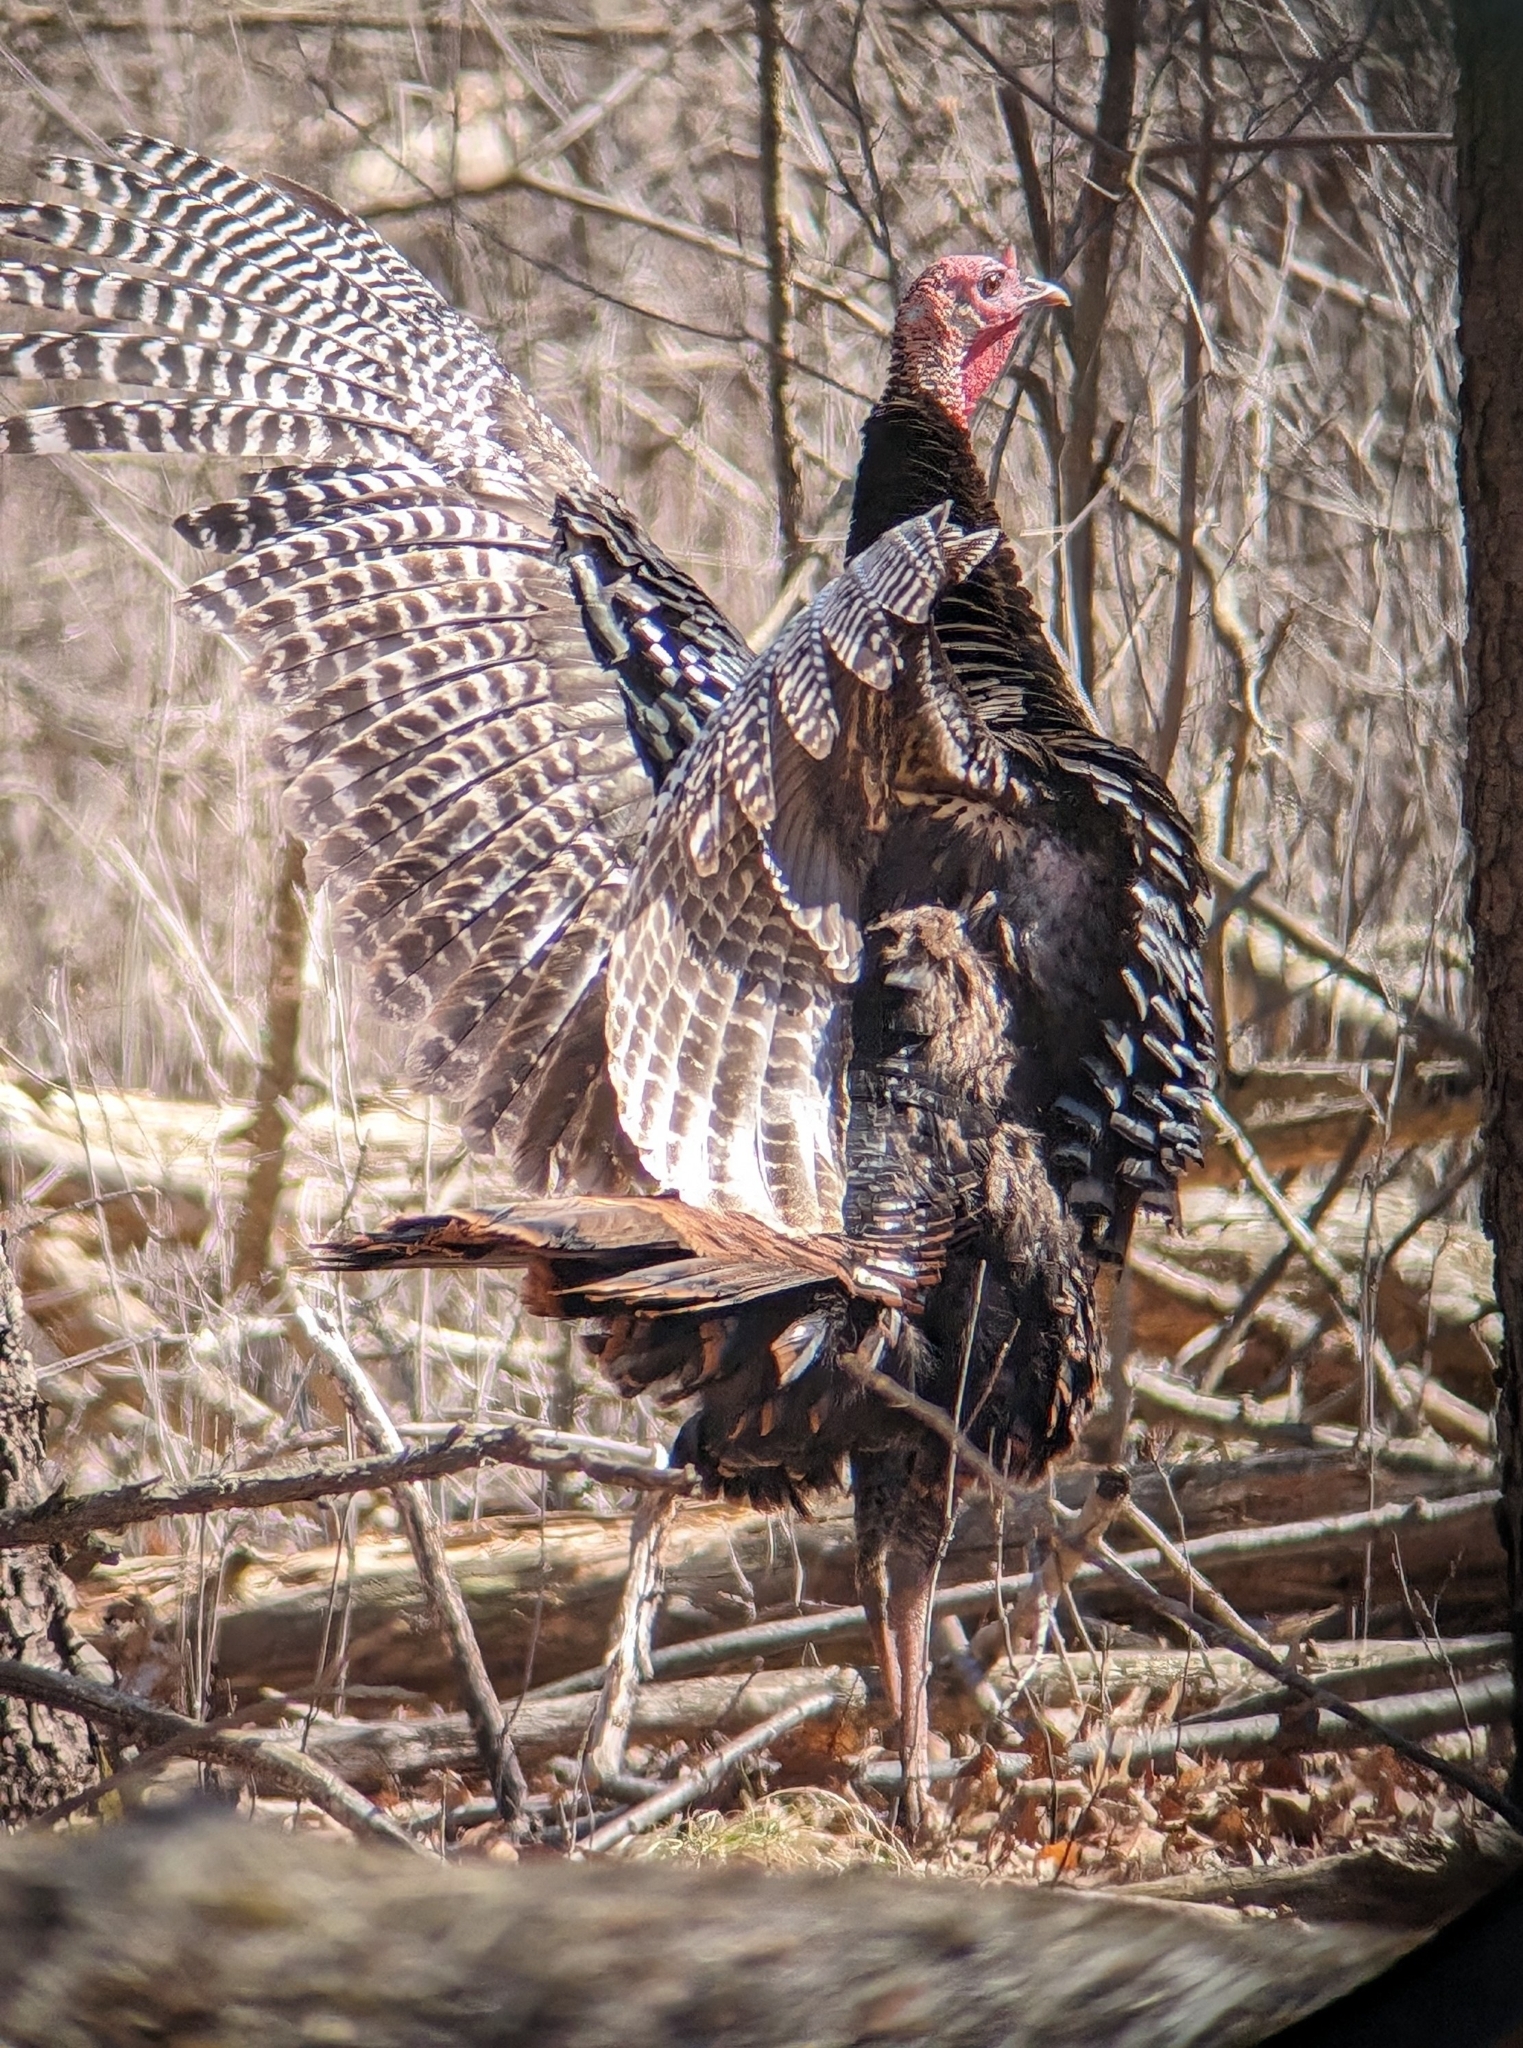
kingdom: Animalia
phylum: Chordata
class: Aves
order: Galliformes
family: Phasianidae
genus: Meleagris
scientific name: Meleagris gallopavo
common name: Wild turkey
